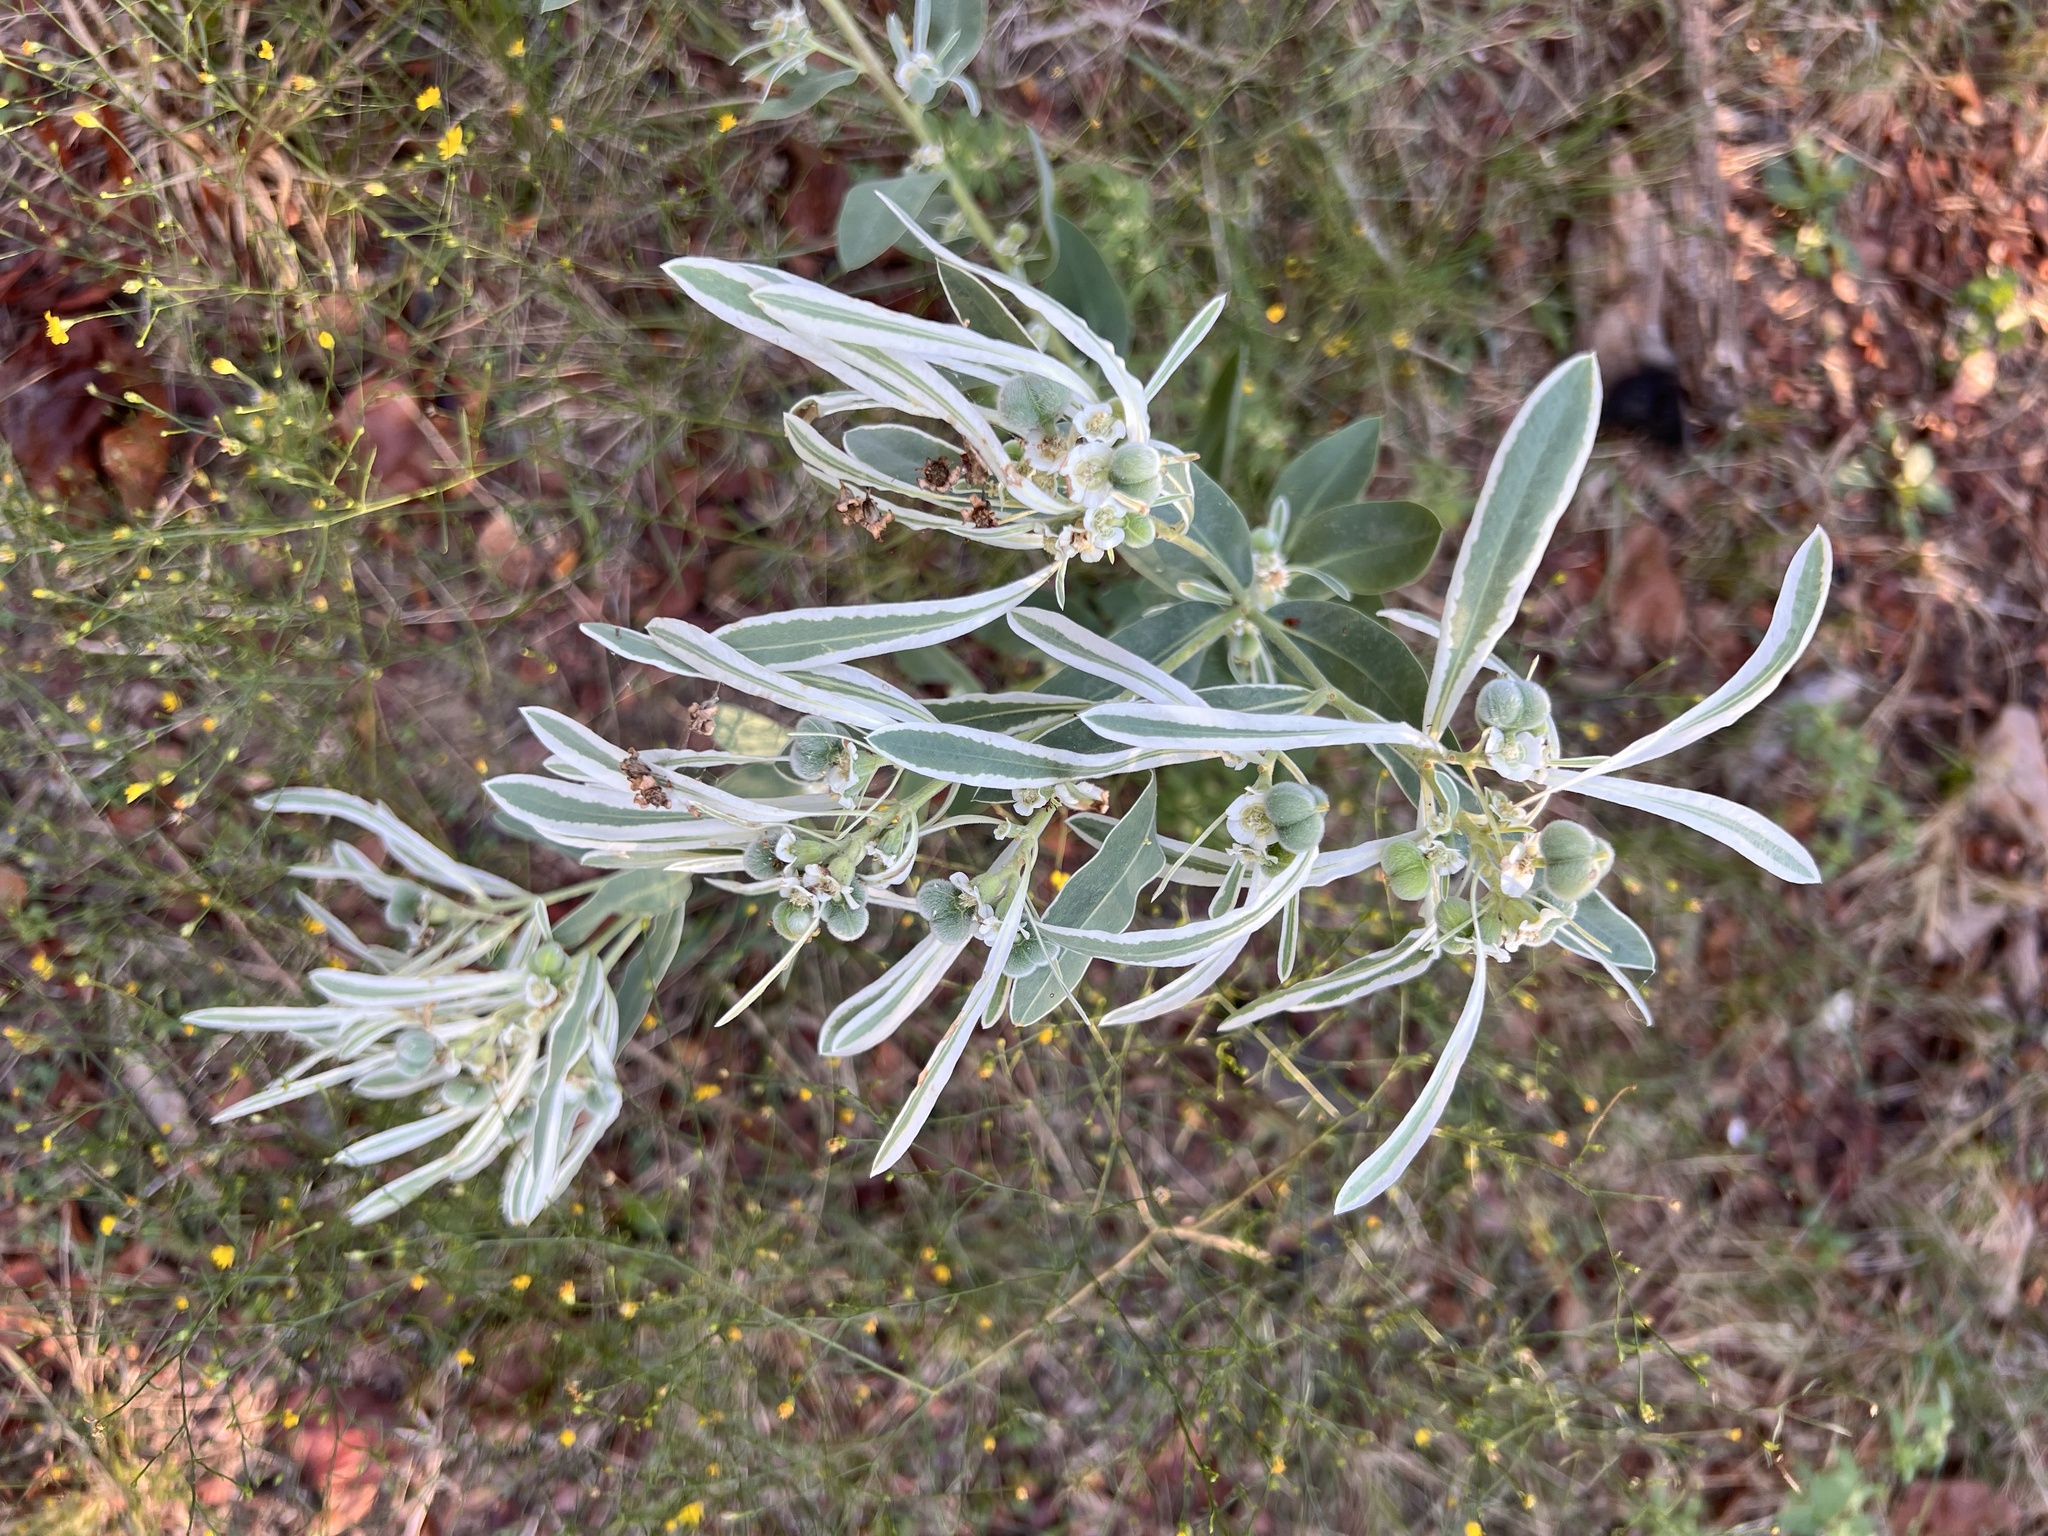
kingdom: Plantae
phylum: Tracheophyta
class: Magnoliopsida
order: Malpighiales
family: Euphorbiaceae
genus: Euphorbia
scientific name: Euphorbia bicolor
